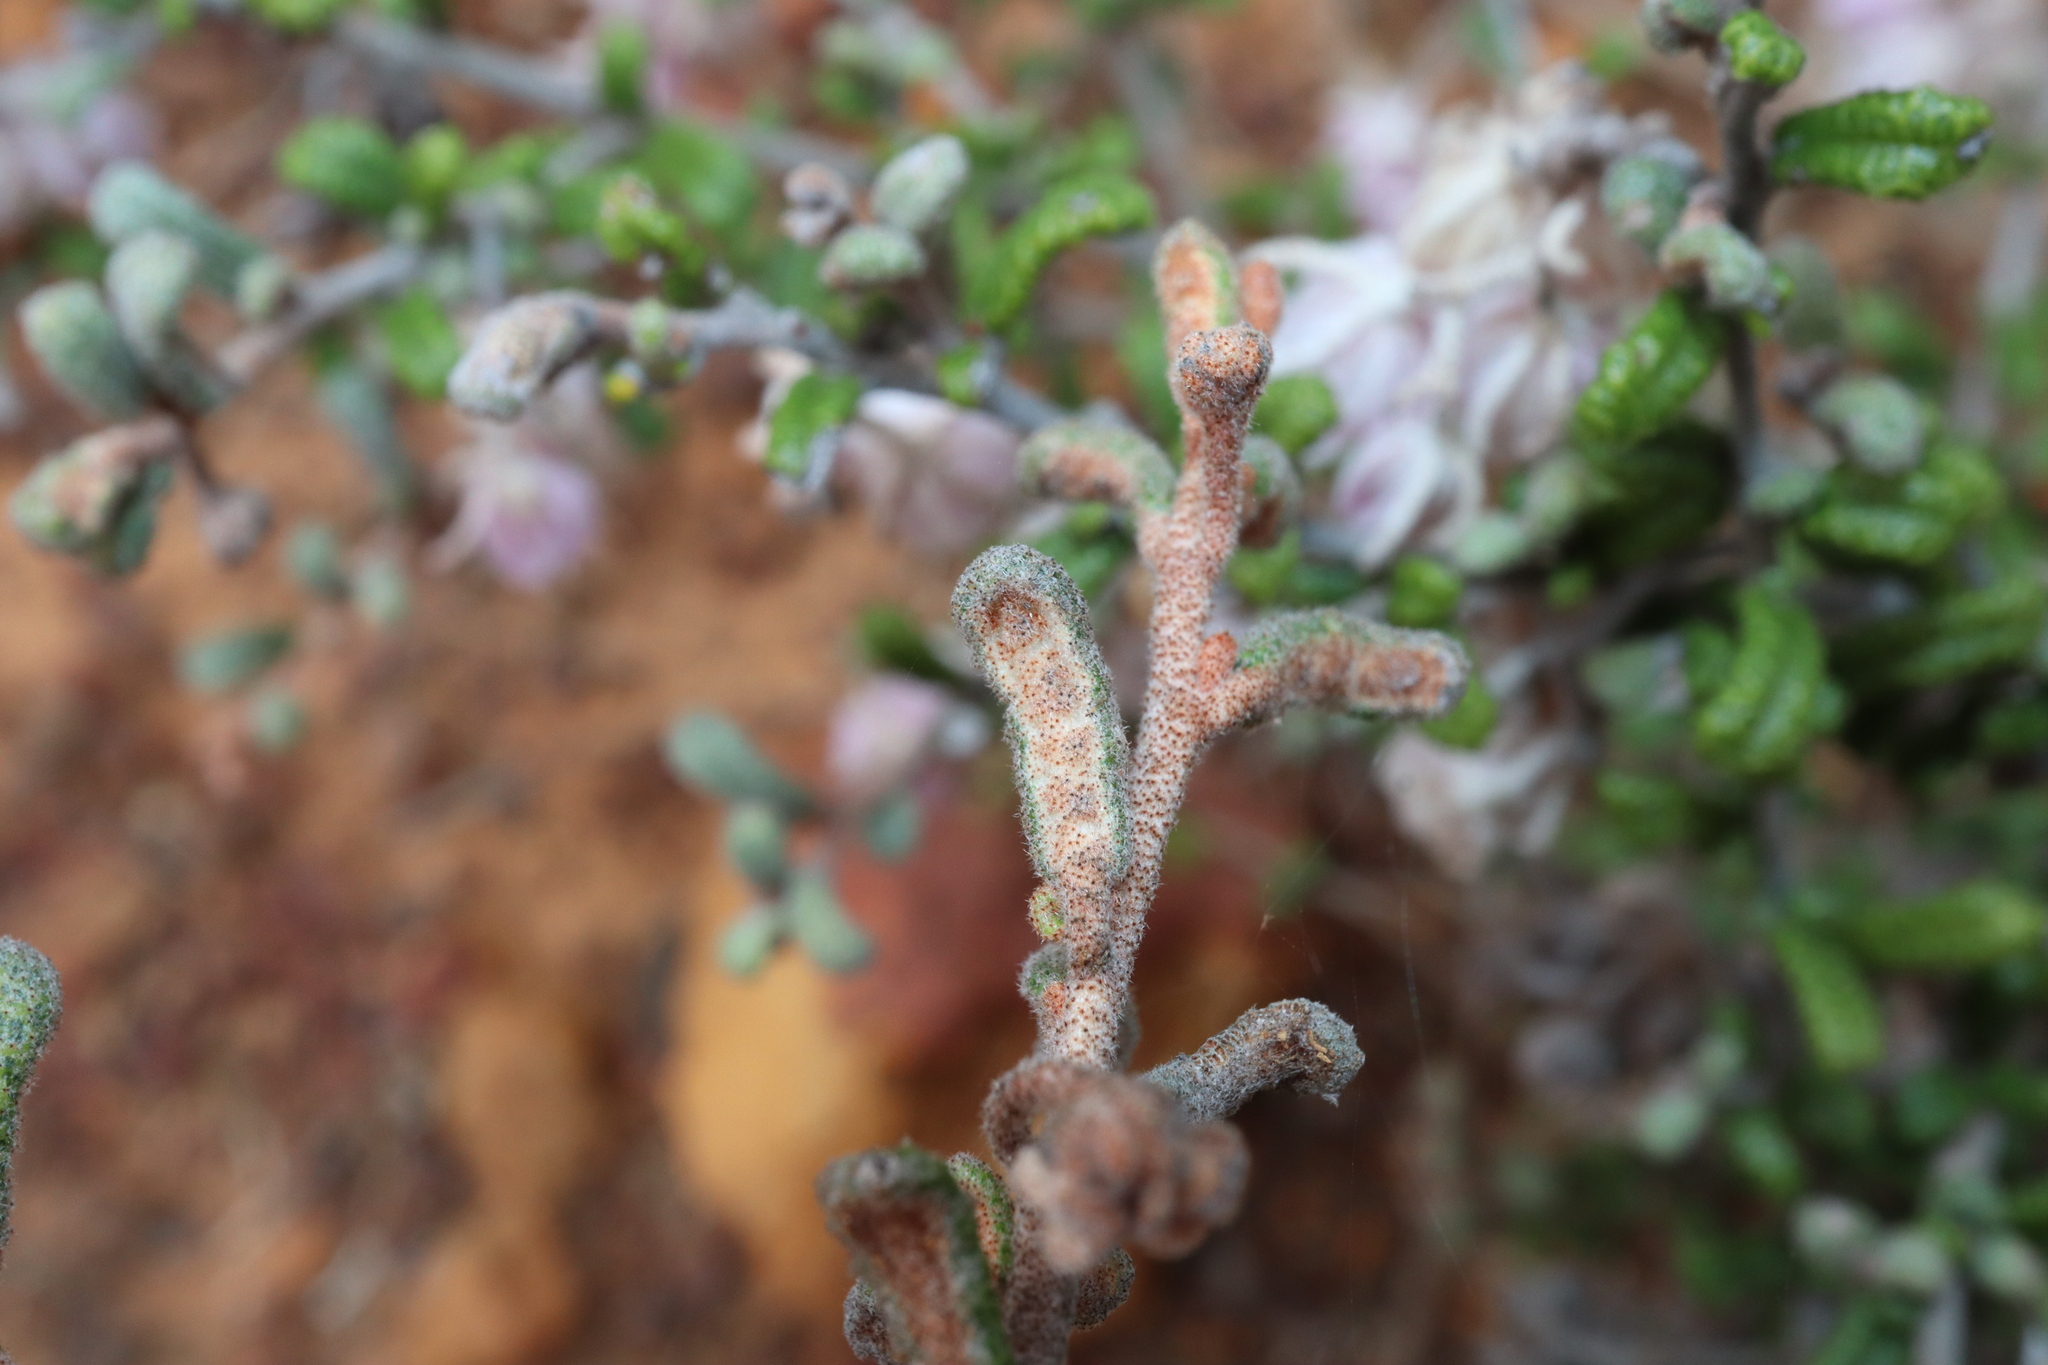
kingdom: Plantae
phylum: Tracheophyta
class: Magnoliopsida
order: Malvales
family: Malvaceae
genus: Guichenotia
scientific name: Guichenotia anota
